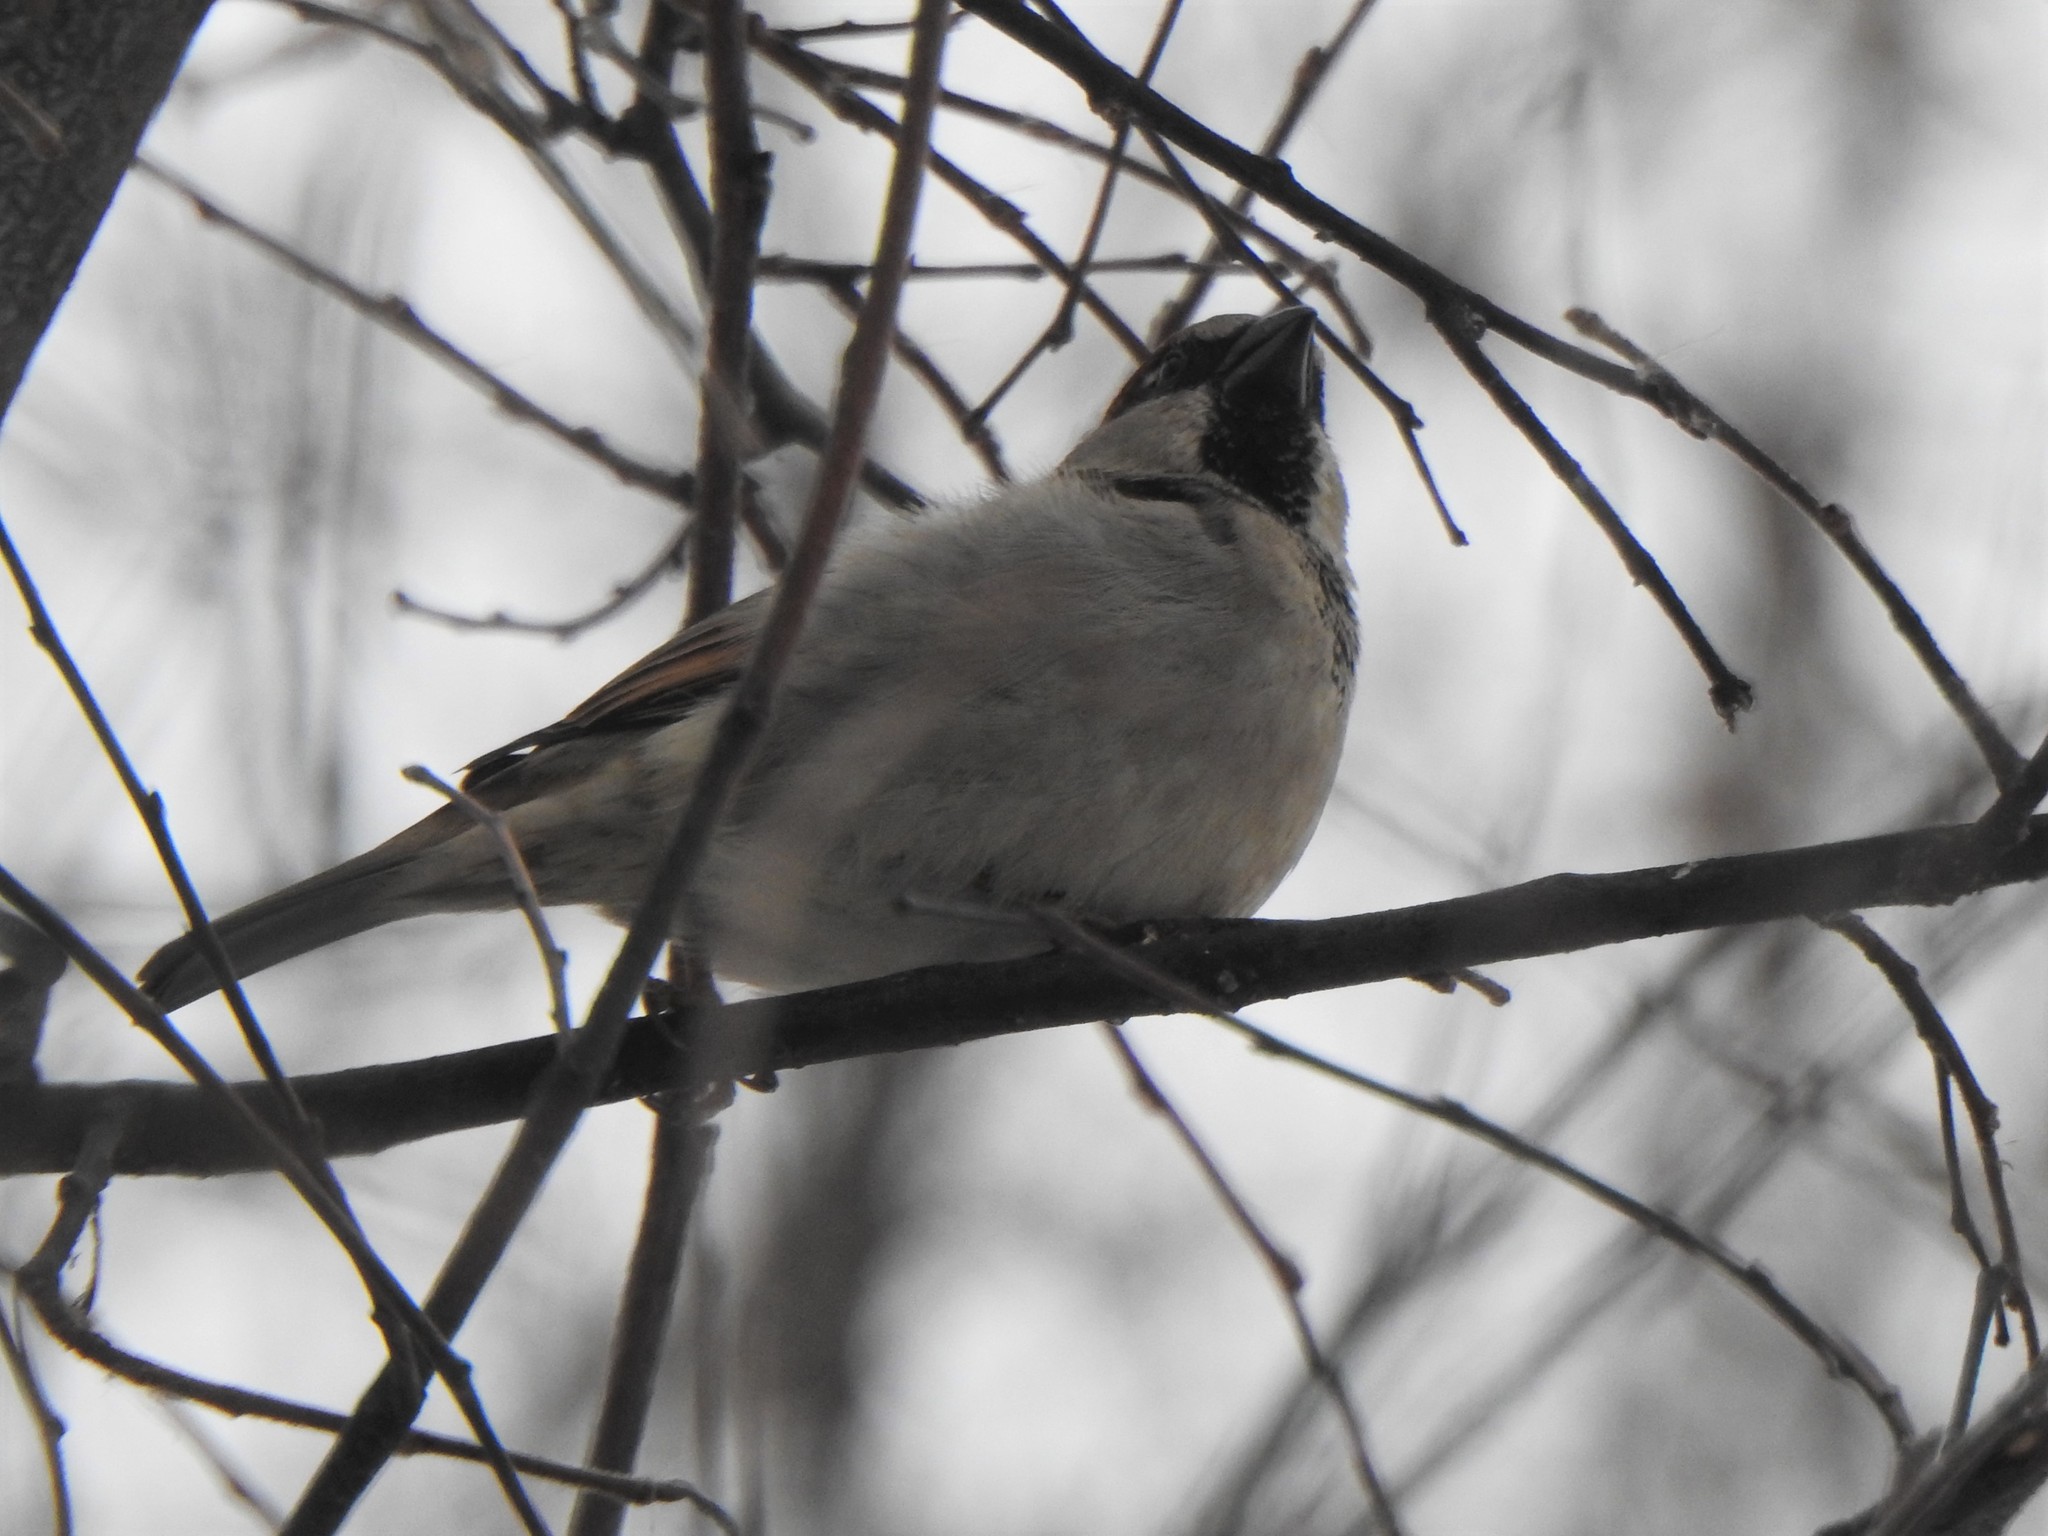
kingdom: Animalia
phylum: Chordata
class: Aves
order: Passeriformes
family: Passeridae
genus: Passer
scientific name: Passer domesticus
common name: House sparrow
